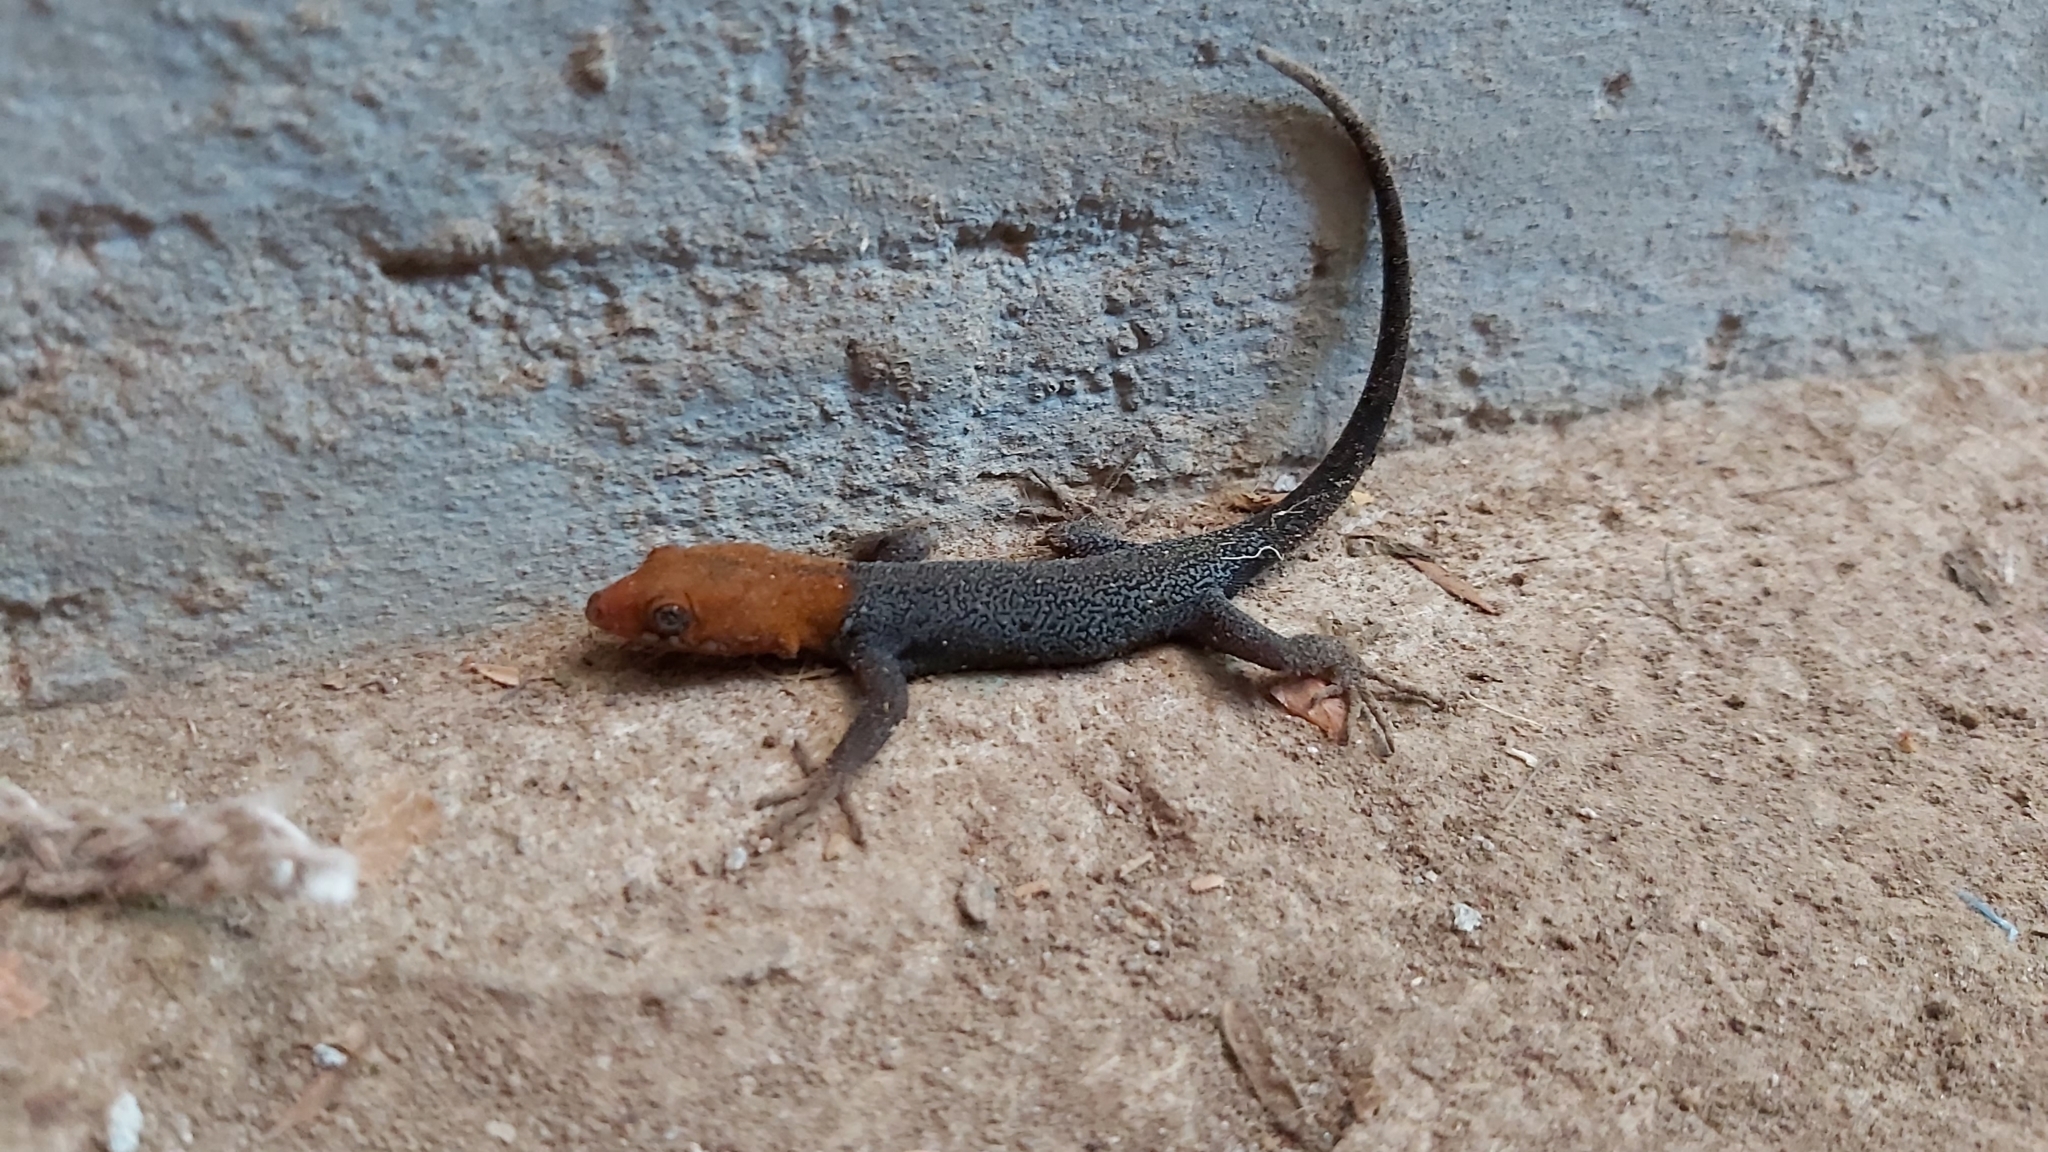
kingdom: Animalia
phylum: Chordata
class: Squamata
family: Sphaerodactylidae
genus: Gonatodes
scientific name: Gonatodes albogularis
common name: Yellow-headed gecko
